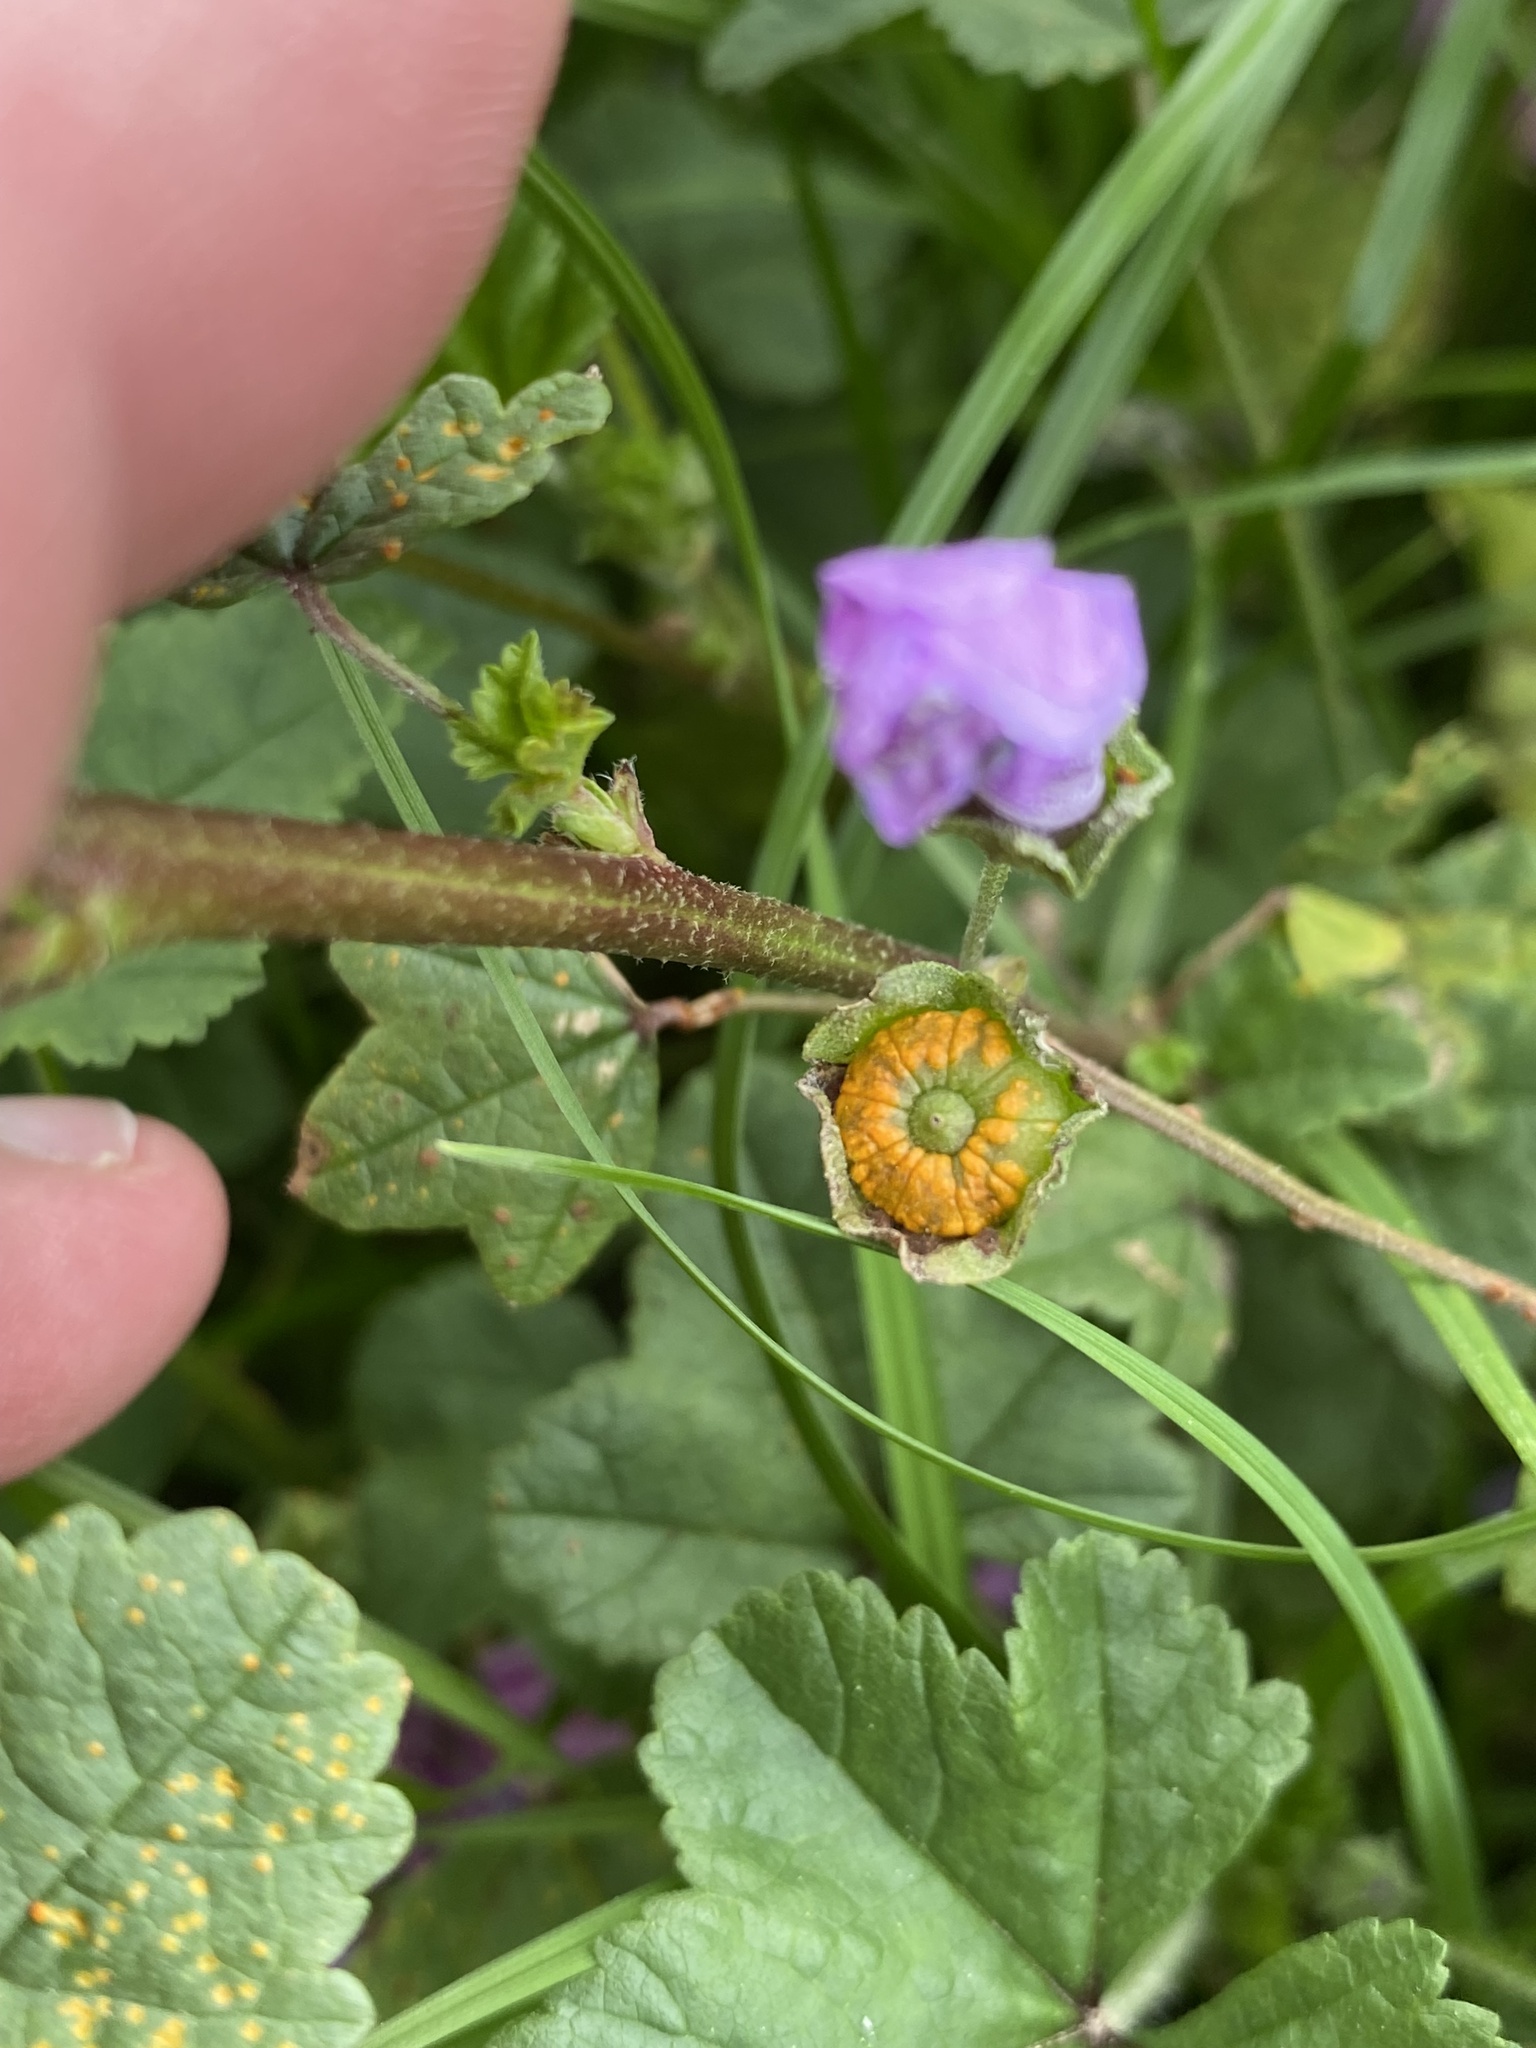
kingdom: Fungi
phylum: Basidiomycota
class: Pucciniomycetes
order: Pucciniales
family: Pucciniaceae
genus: Puccinia
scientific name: Puccinia malvacearum
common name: Hollyhock rust
